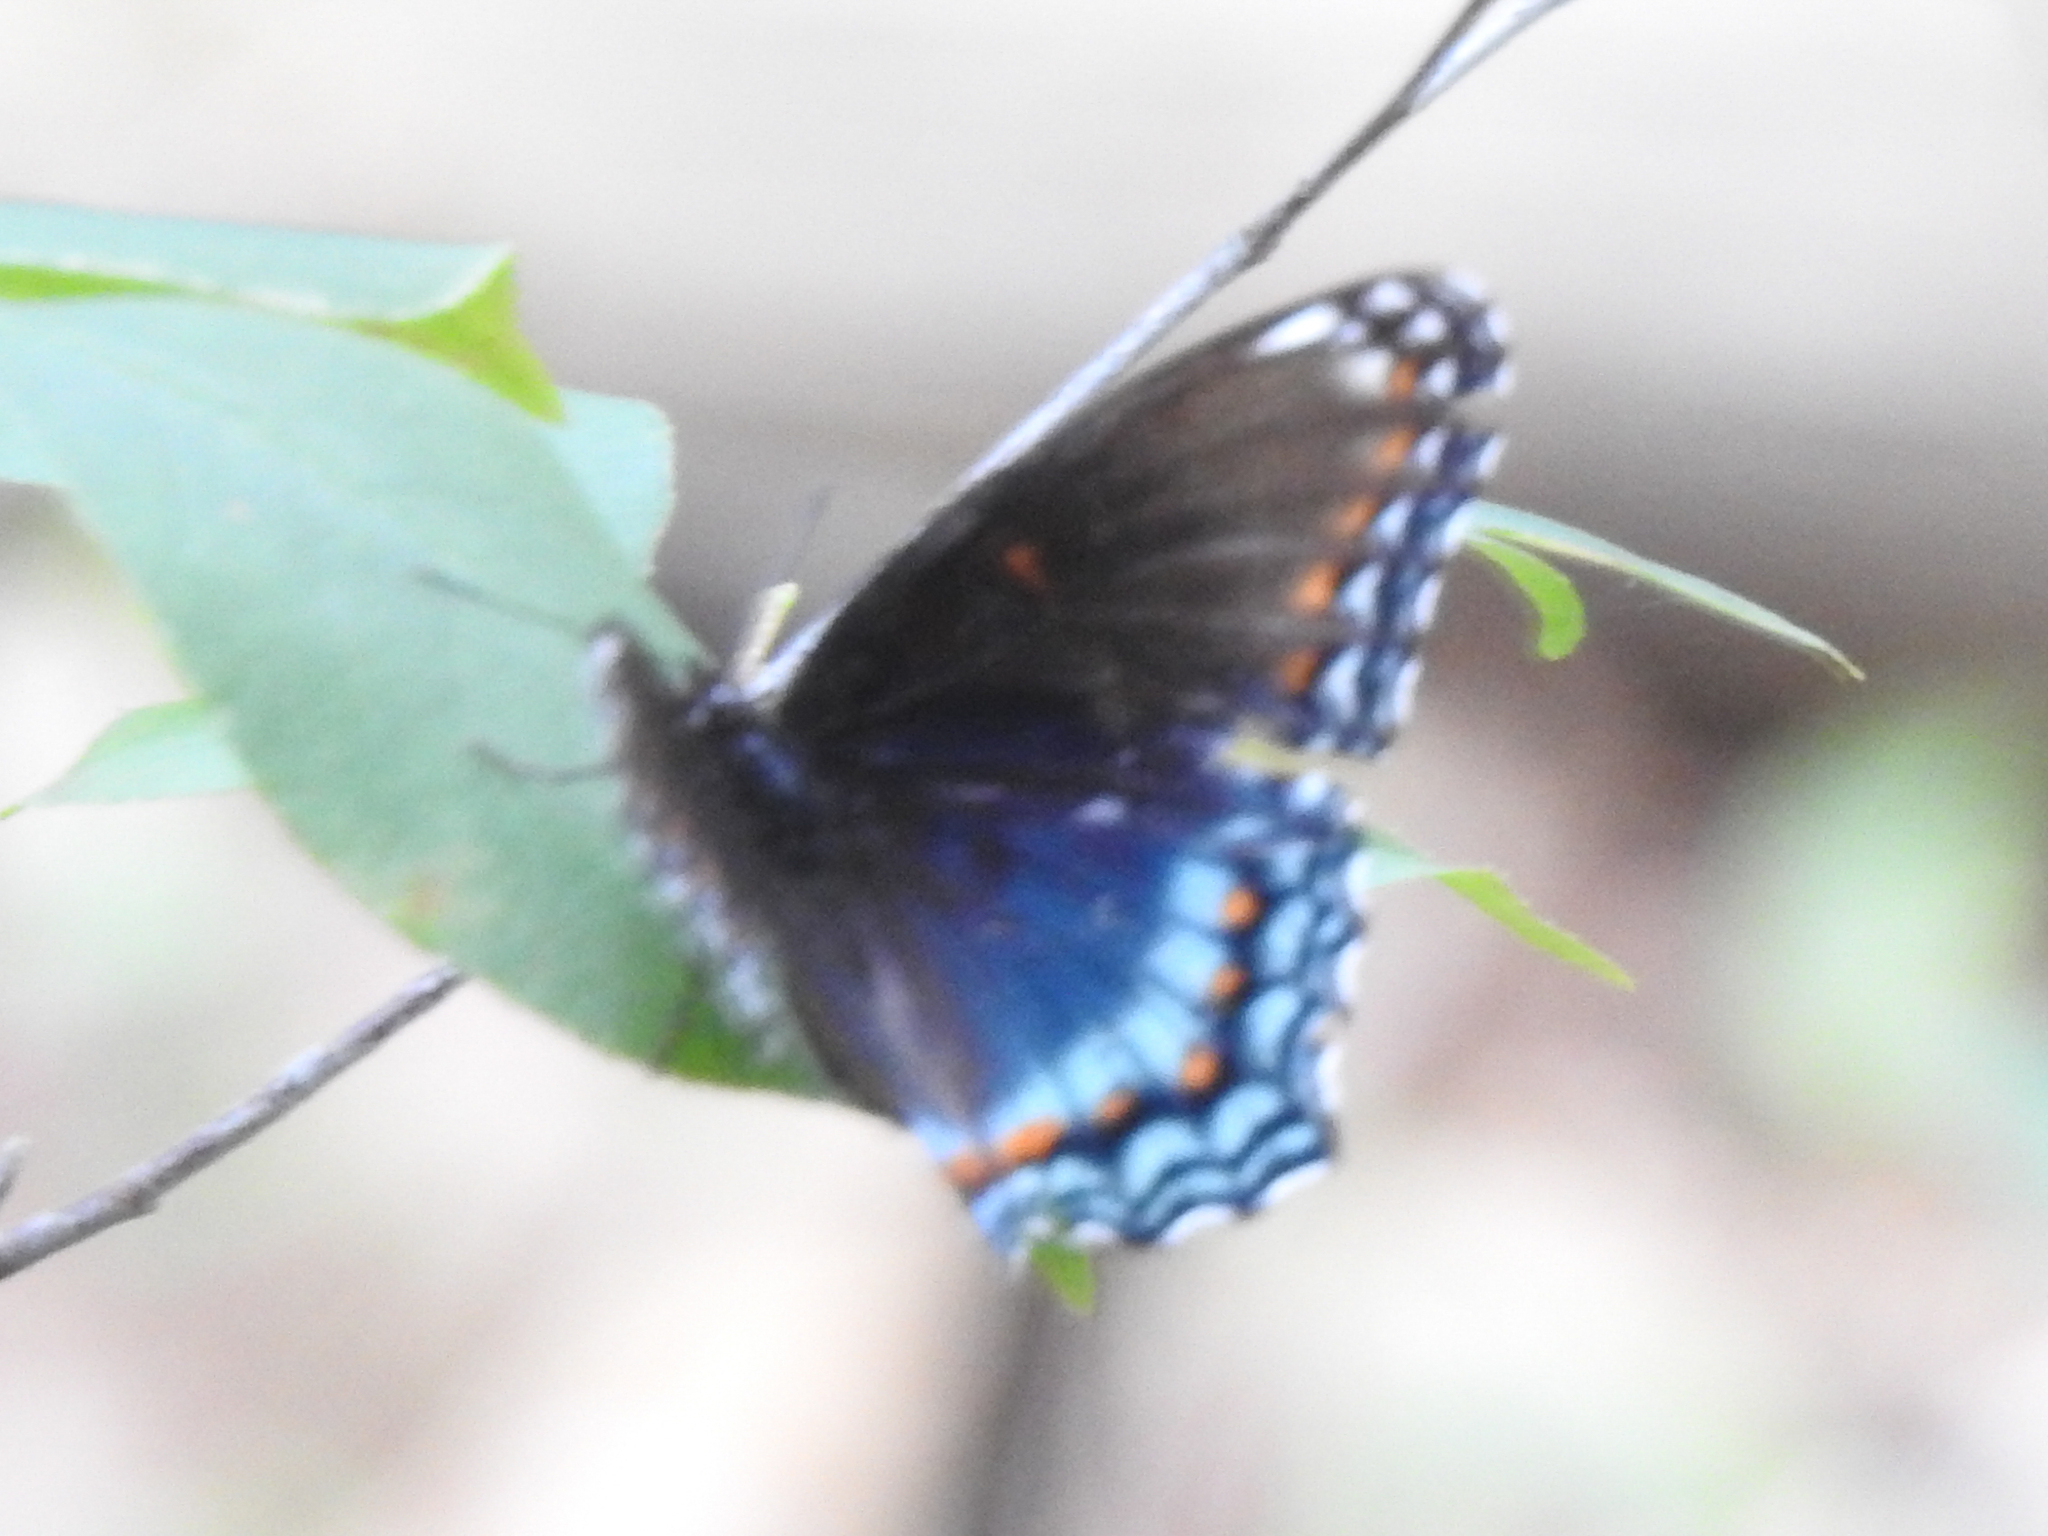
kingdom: Animalia
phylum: Arthropoda
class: Insecta
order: Lepidoptera
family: Nymphalidae
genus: Limenitis
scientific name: Limenitis arthemis
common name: Red-spotted admiral
